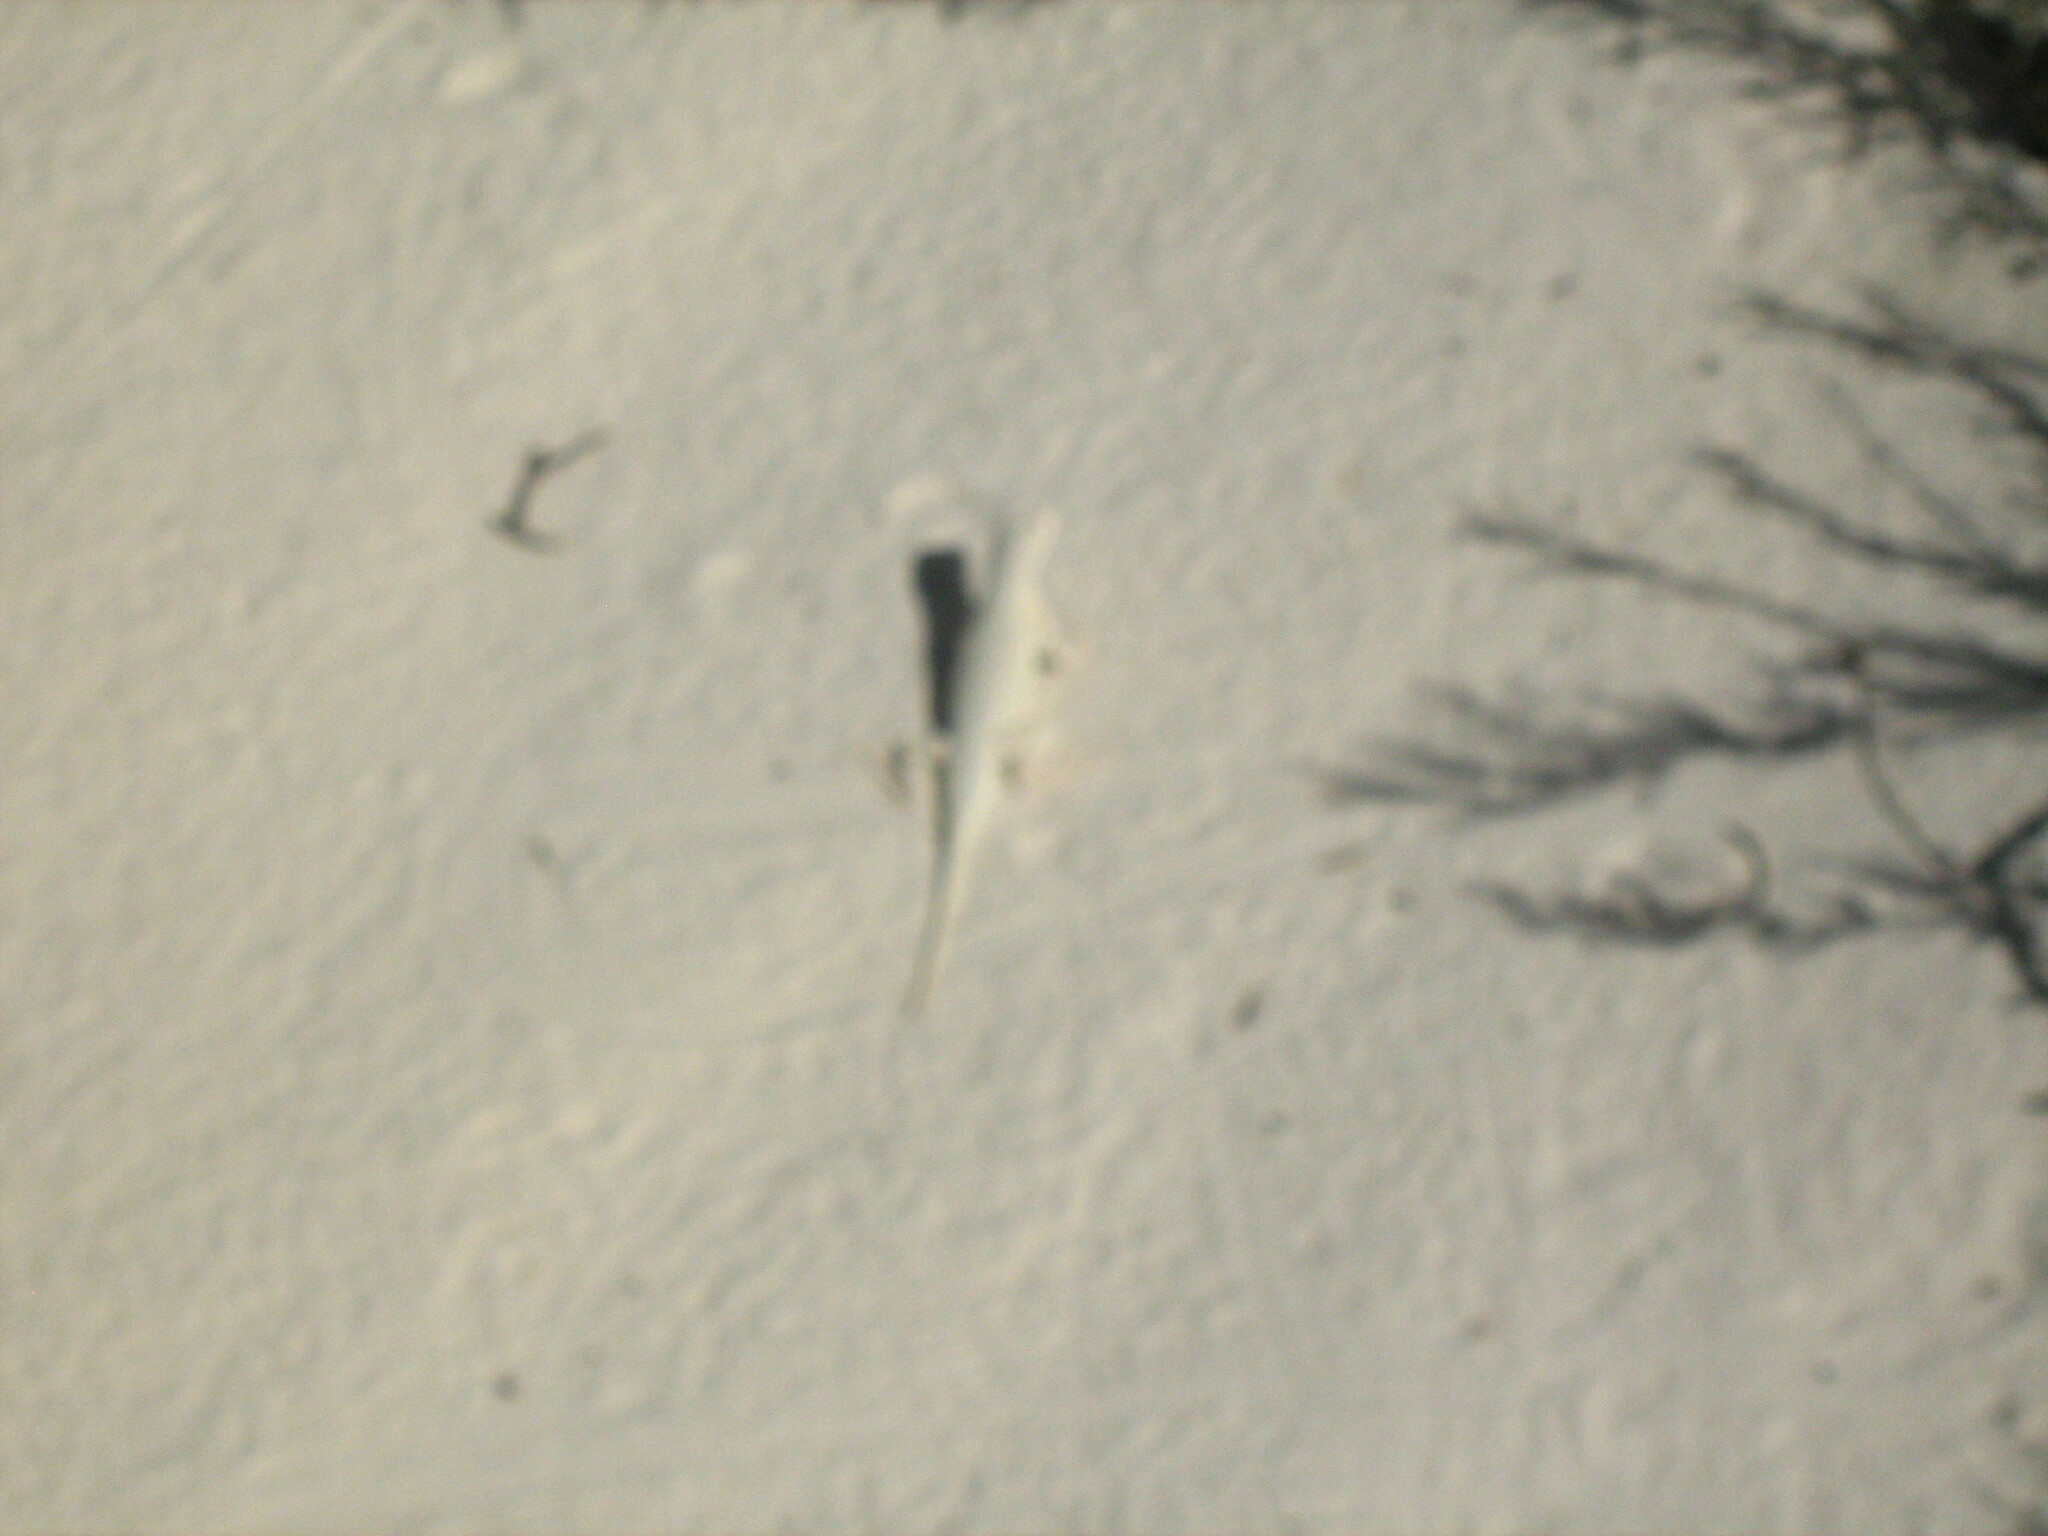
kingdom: Animalia
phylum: Chordata
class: Squamata
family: Phrynosomatidae
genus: Holbrookia
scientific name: Holbrookia maculata
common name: Lesser earless lizard
